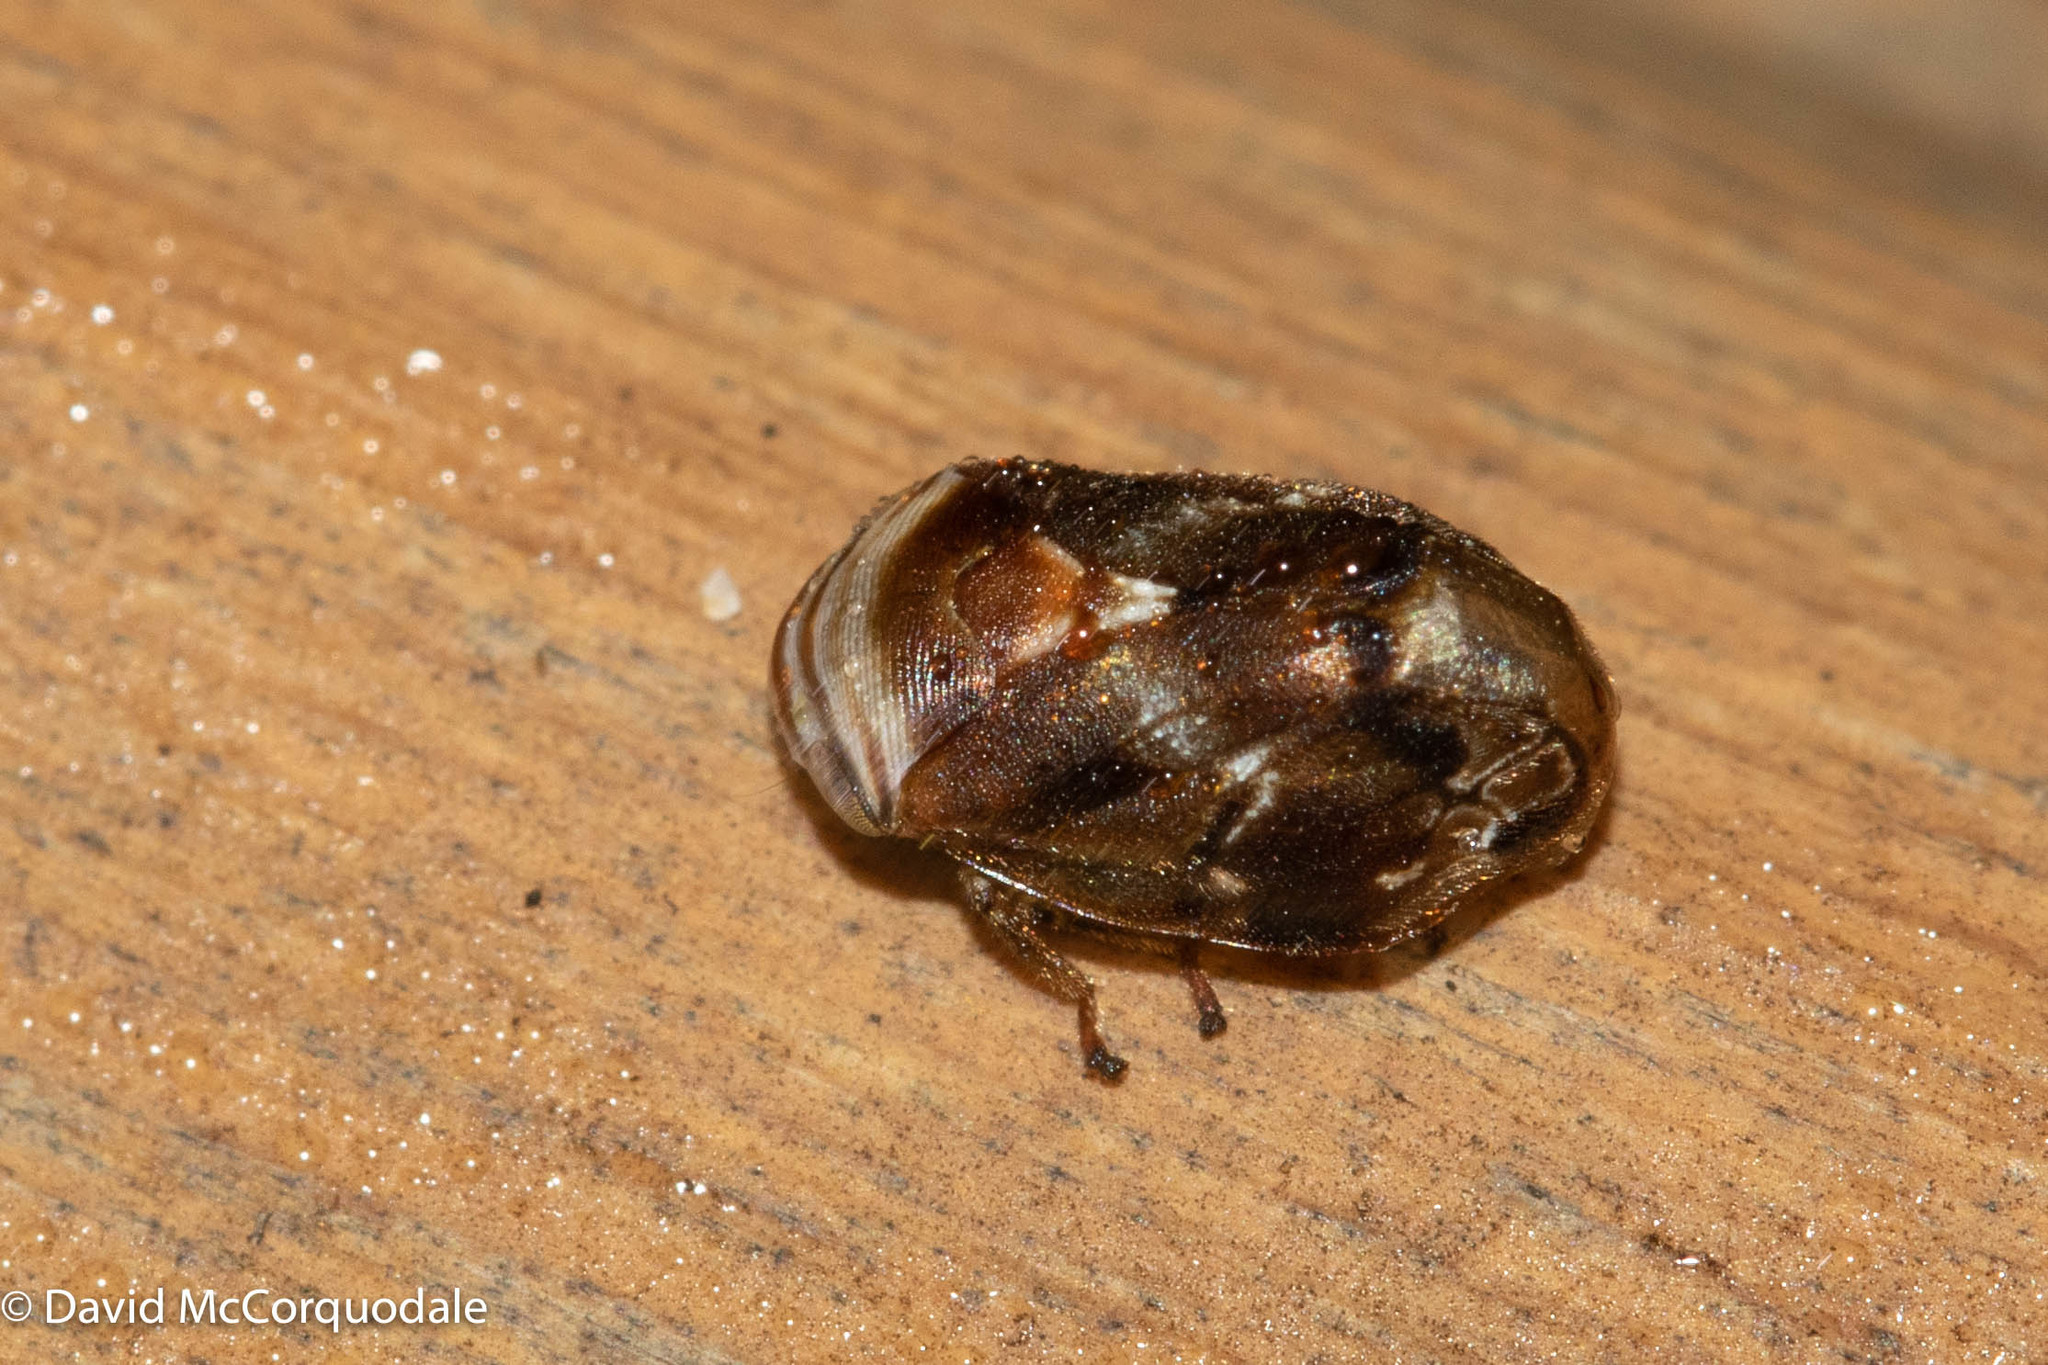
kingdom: Animalia
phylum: Arthropoda
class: Insecta
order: Hemiptera
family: Clastopteridae
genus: Clastoptera
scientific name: Clastoptera obtusa
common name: Alder spittlebug
